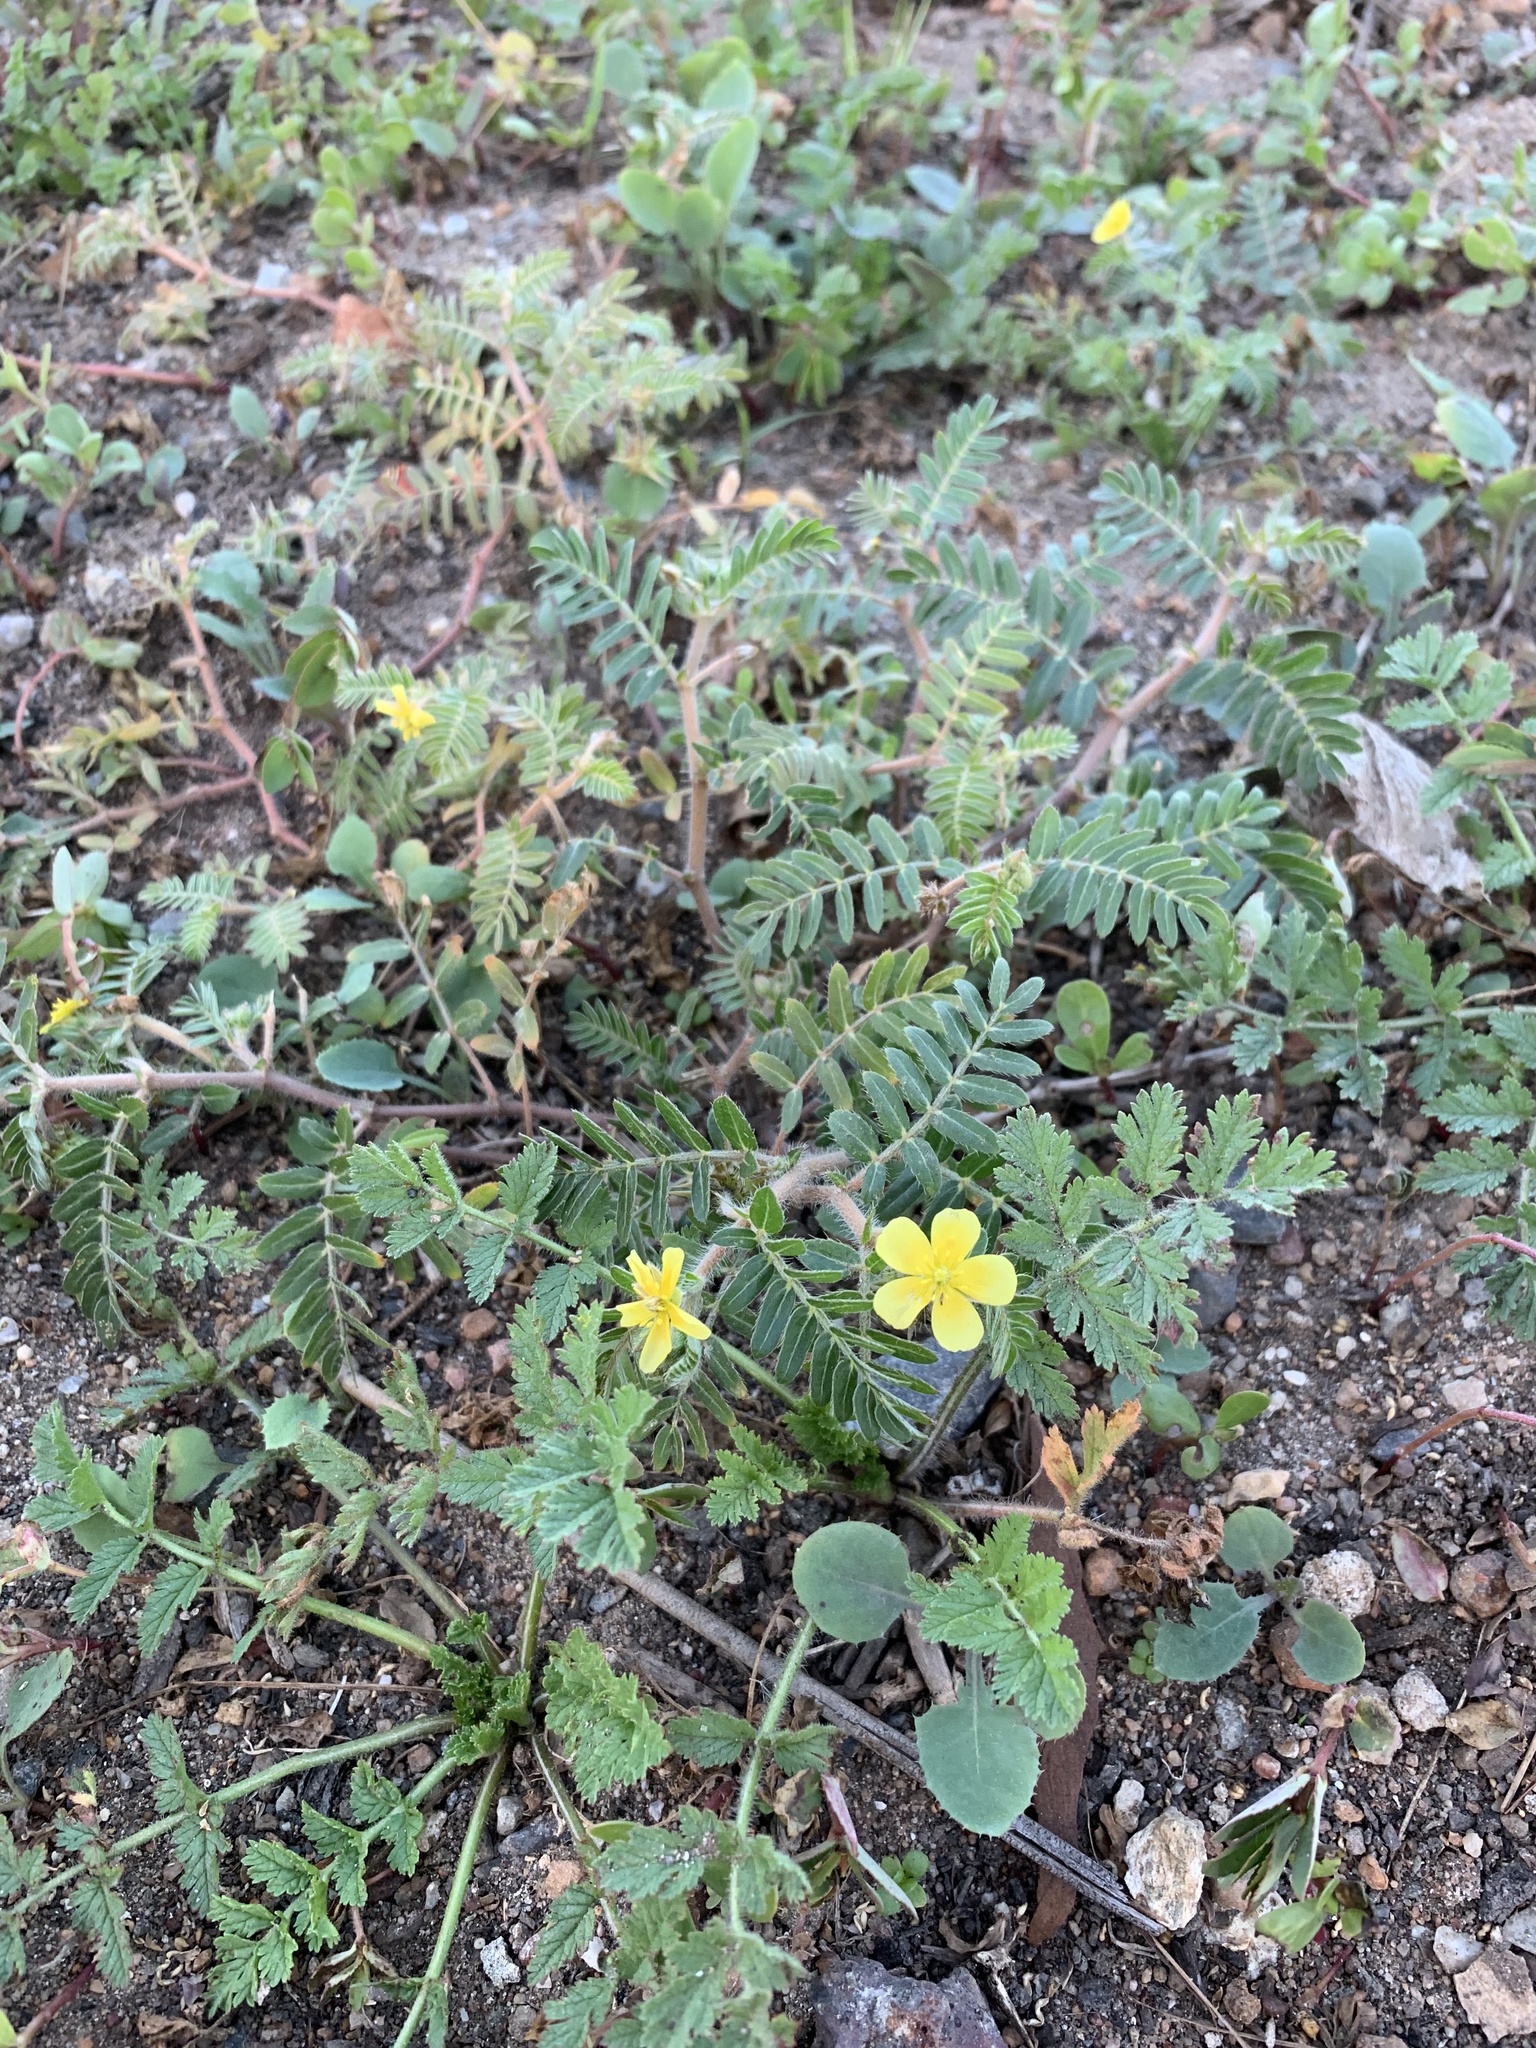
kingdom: Plantae
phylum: Tracheophyta
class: Magnoliopsida
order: Zygophyllales
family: Zygophyllaceae
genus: Tribulus
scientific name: Tribulus terrestris
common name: Puncturevine
